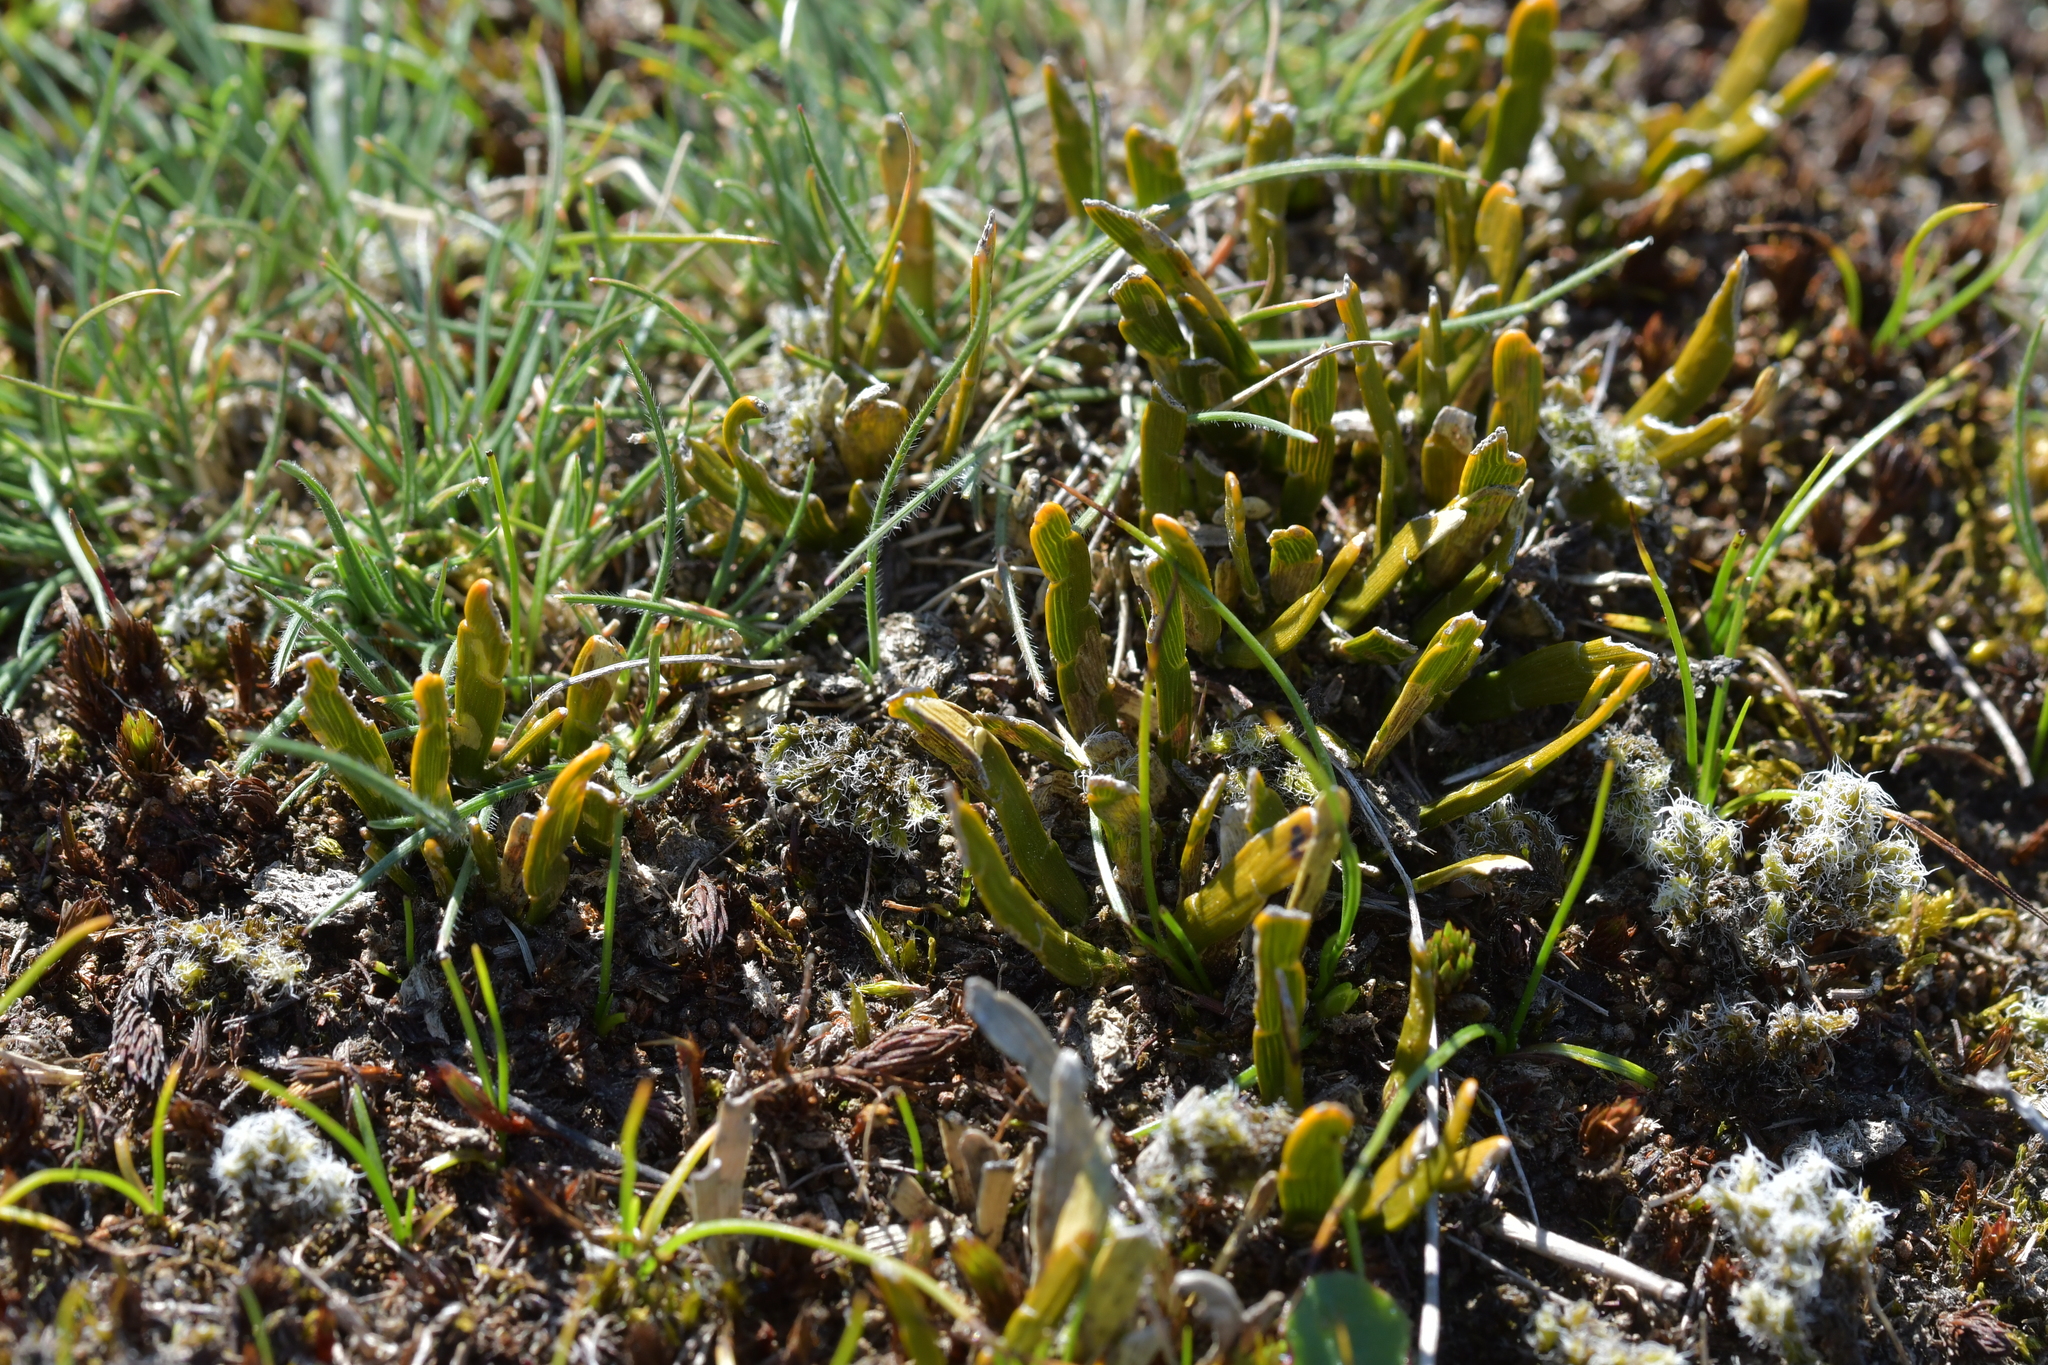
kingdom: Plantae
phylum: Tracheophyta
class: Magnoliopsida
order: Fabales
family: Fabaceae
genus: Carmichaelia
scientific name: Carmichaelia corrugata
